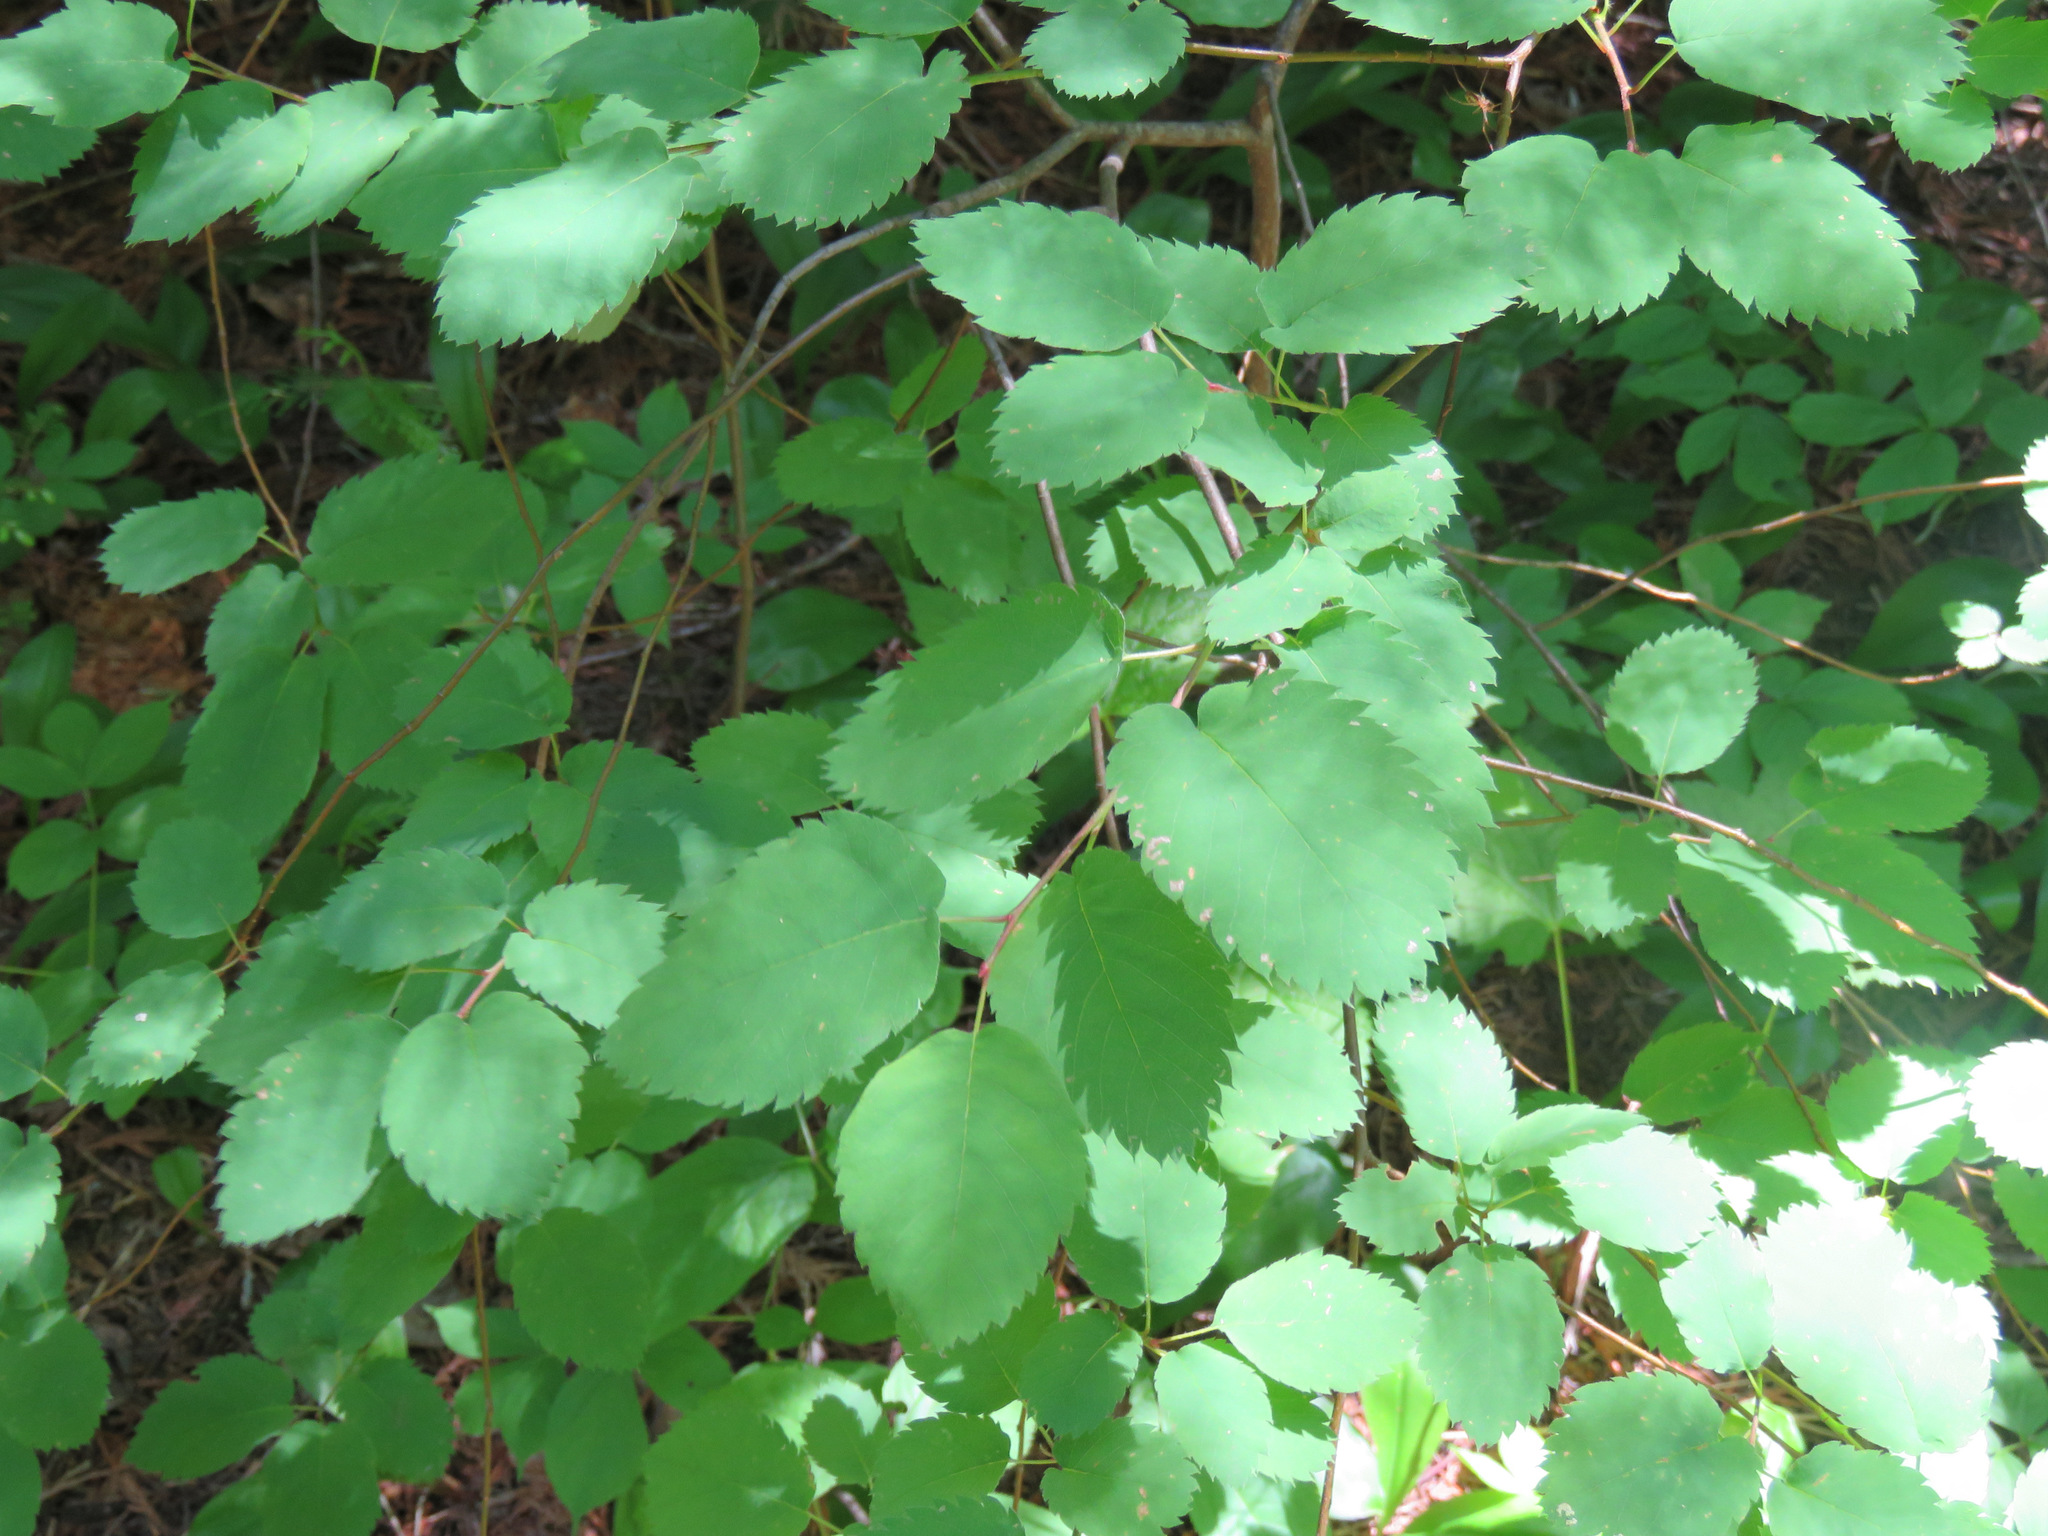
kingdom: Plantae
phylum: Tracheophyta
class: Magnoliopsida
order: Rosales
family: Rosaceae
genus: Amelanchier
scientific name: Amelanchier alnifolia
